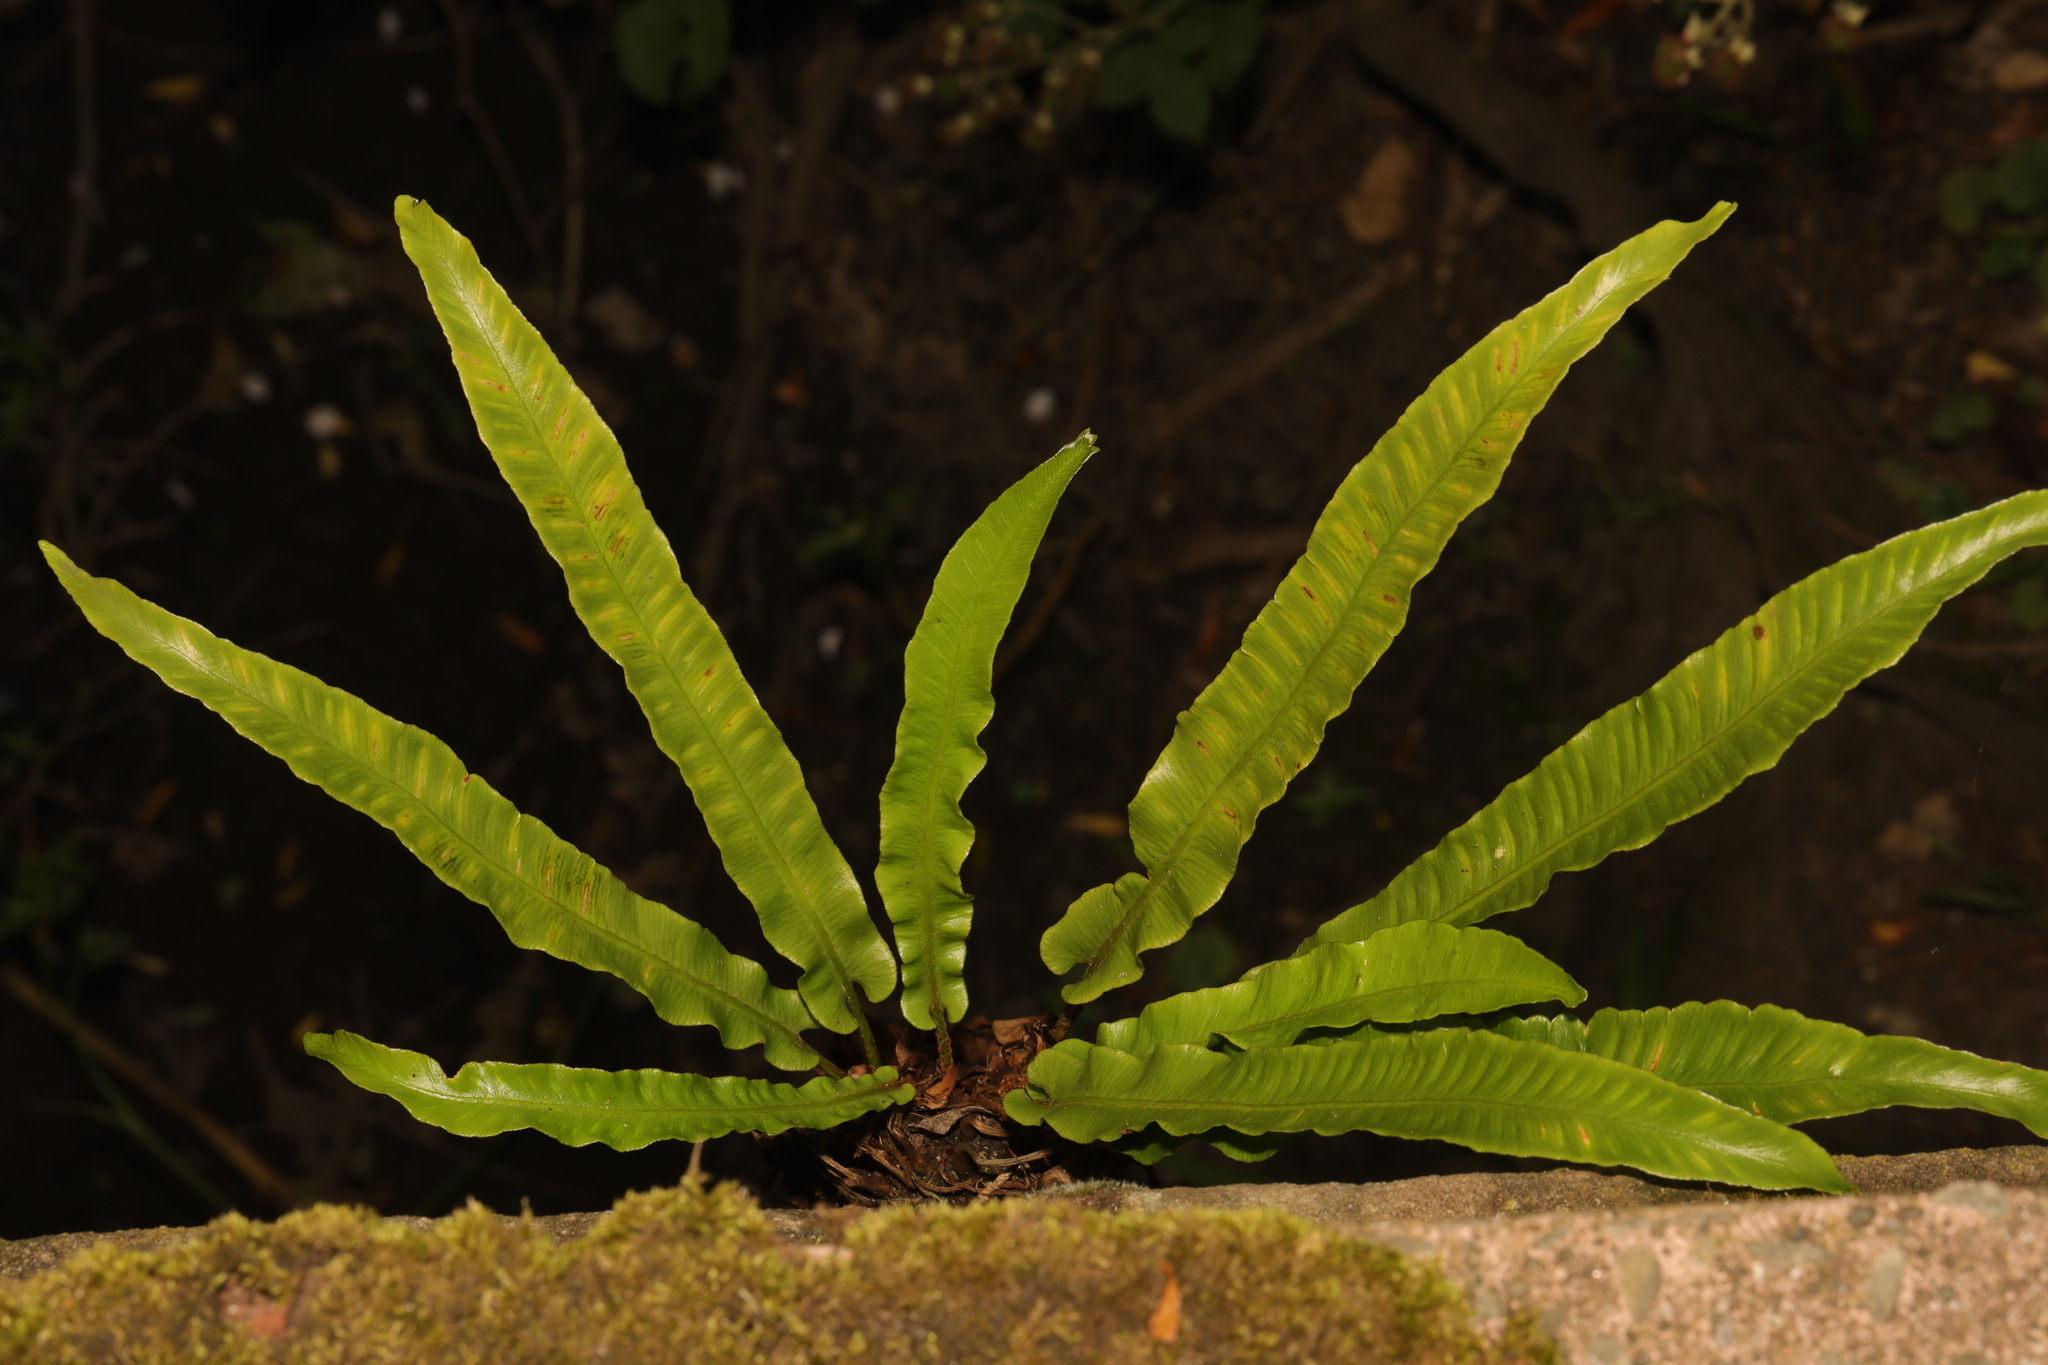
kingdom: Plantae
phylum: Tracheophyta
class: Polypodiopsida
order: Polypodiales
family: Aspleniaceae
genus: Asplenium
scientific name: Asplenium scolopendrium
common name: Hart's-tongue fern
